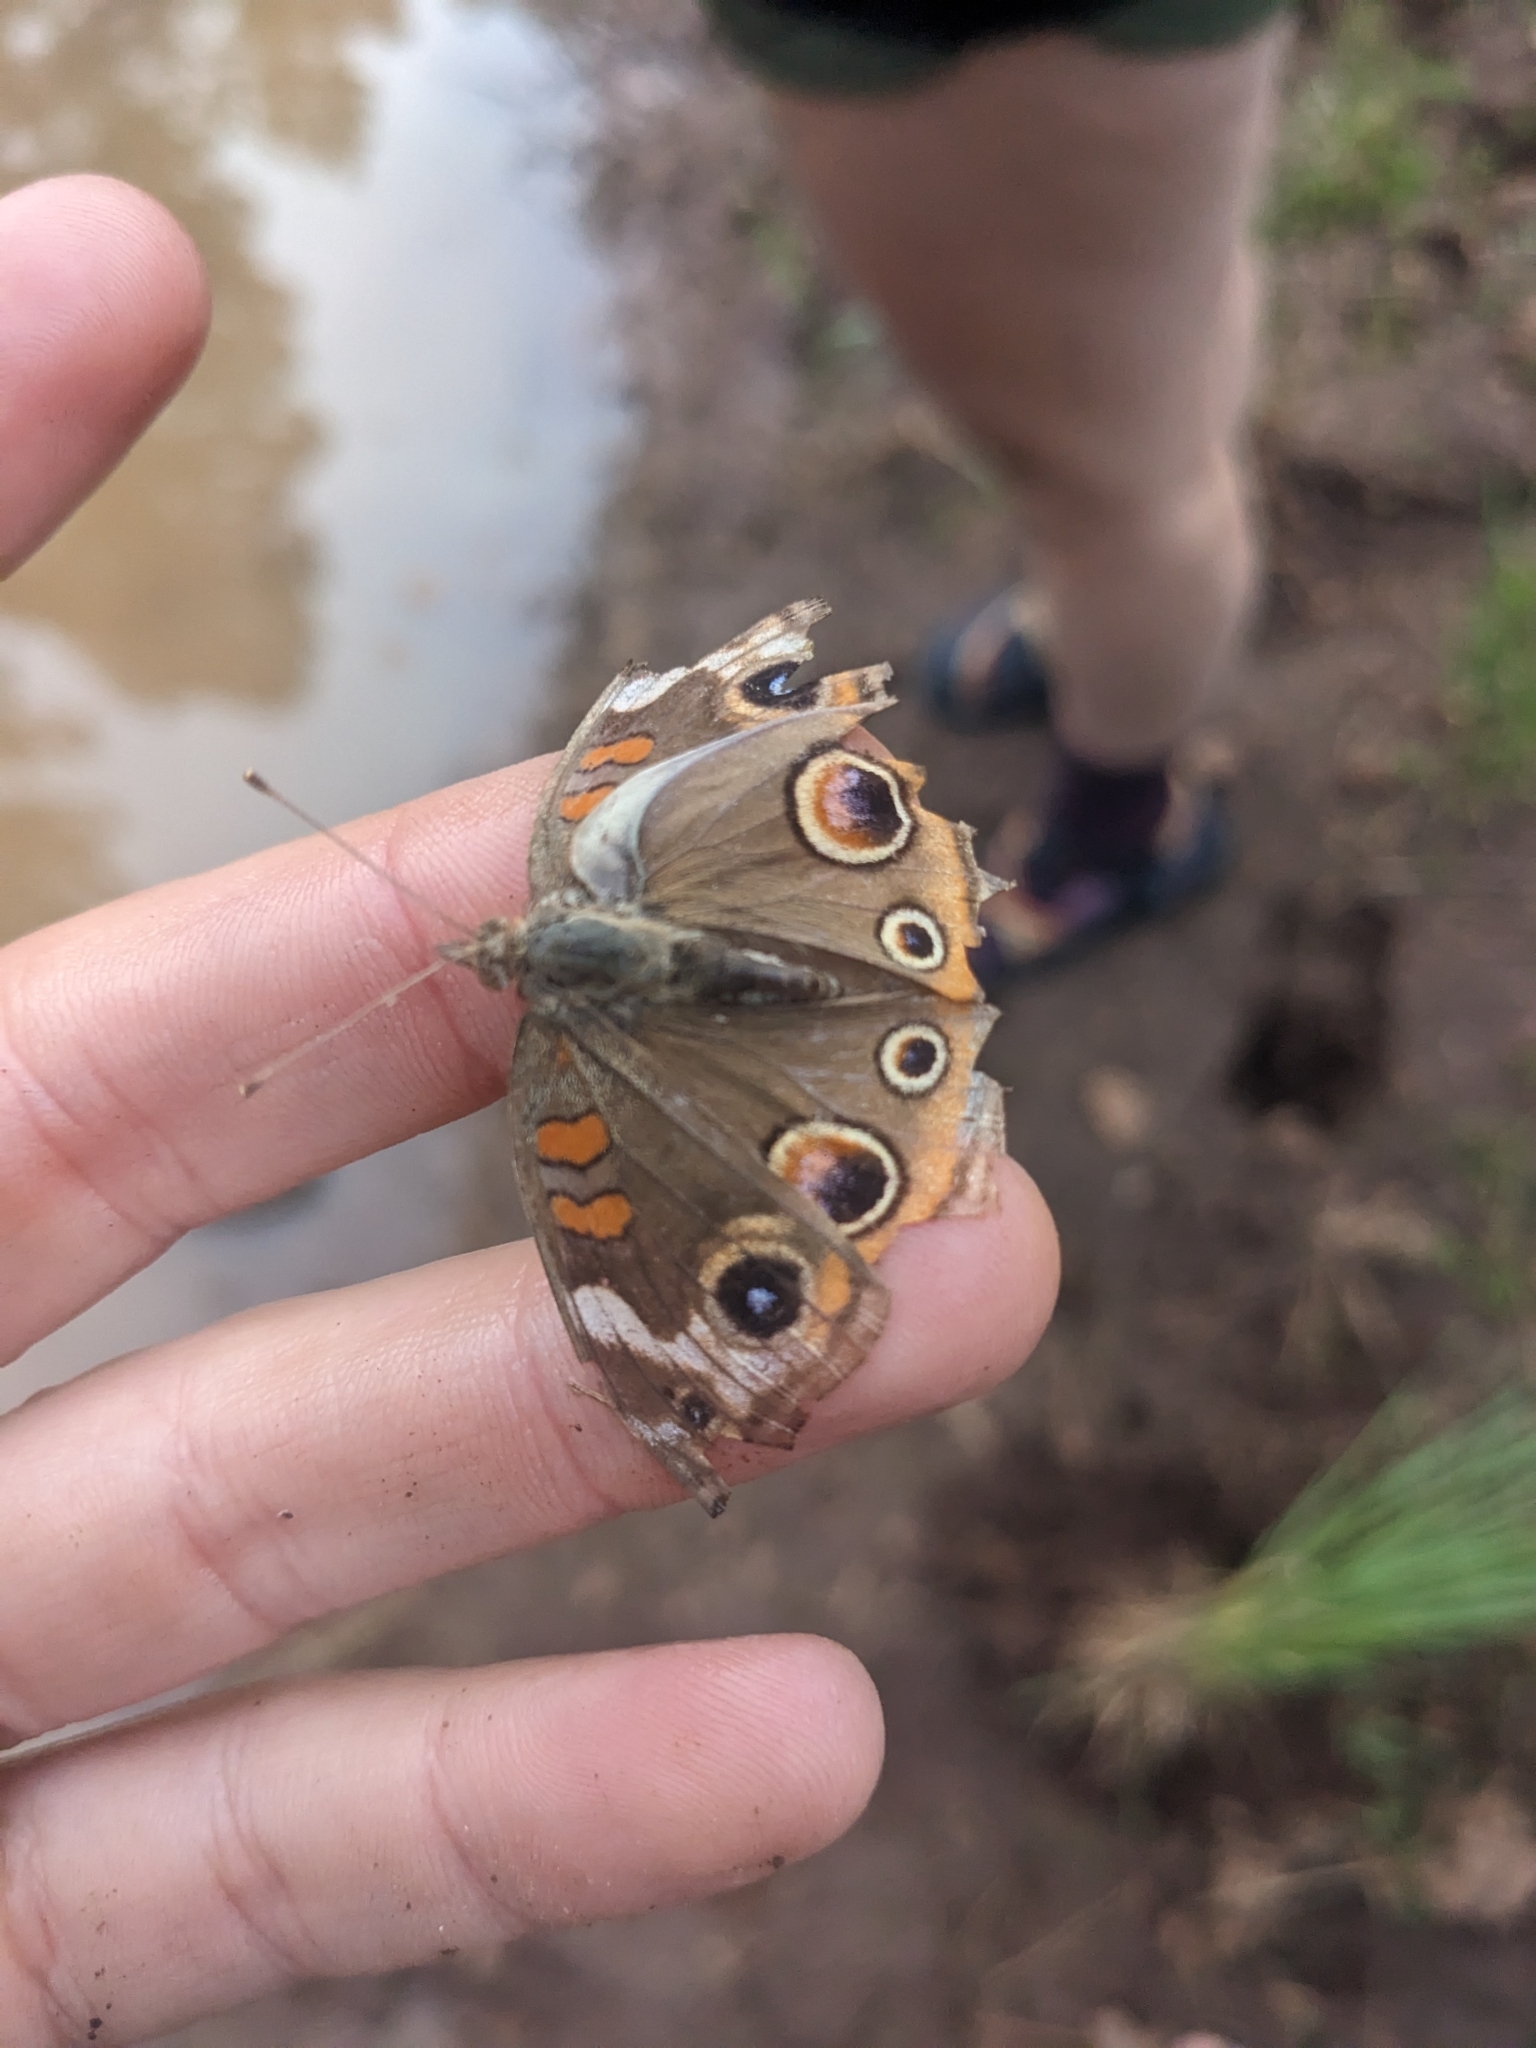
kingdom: Animalia
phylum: Arthropoda
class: Insecta
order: Lepidoptera
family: Nymphalidae
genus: Junonia
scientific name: Junonia grisea
